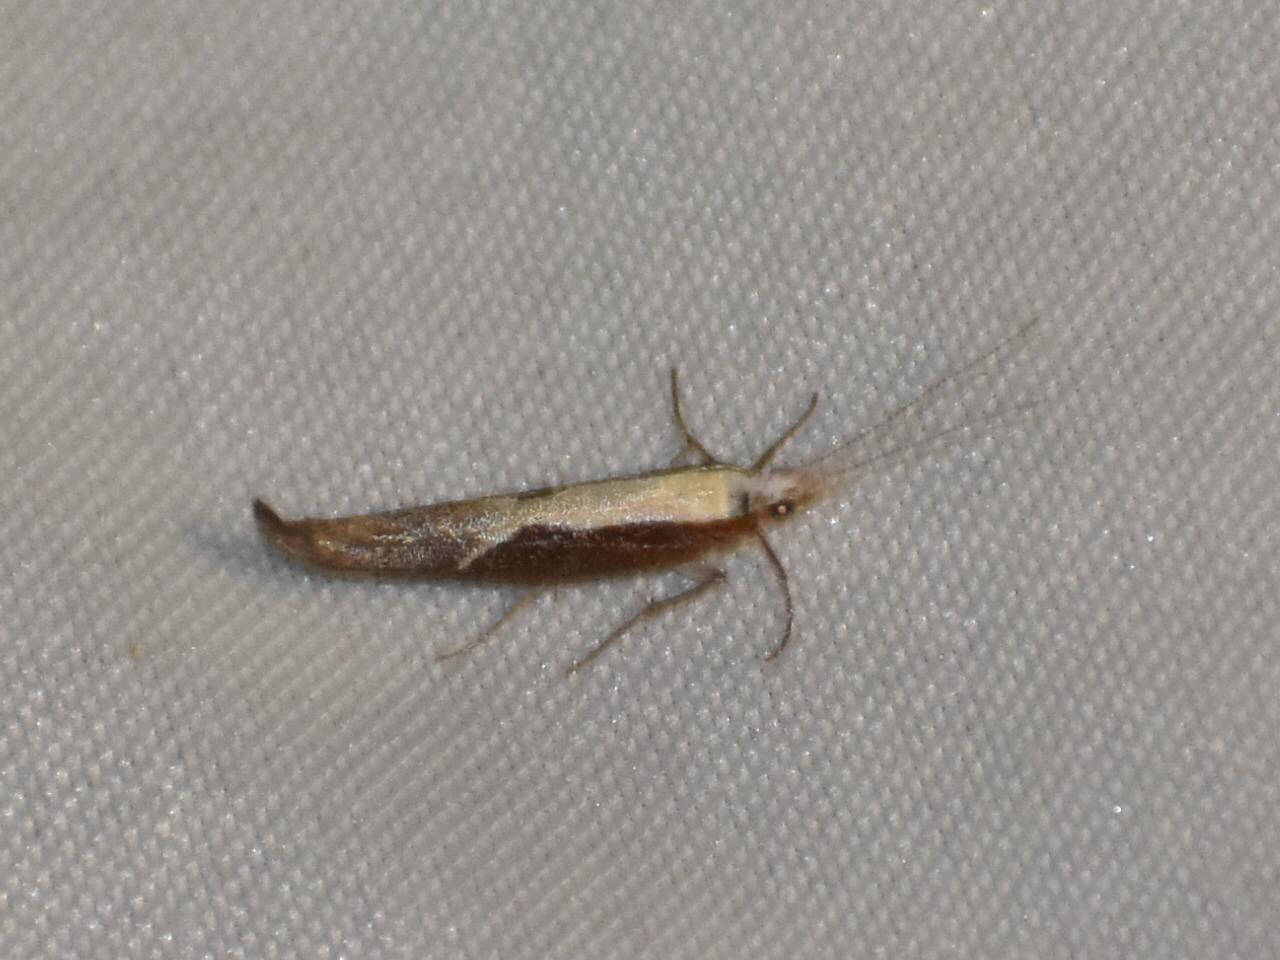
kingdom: Animalia
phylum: Arthropoda
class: Insecta
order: Lepidoptera
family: Ypsolophidae
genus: Ypsolopha
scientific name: Ypsolopha dentella
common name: Honeysuckle moth
